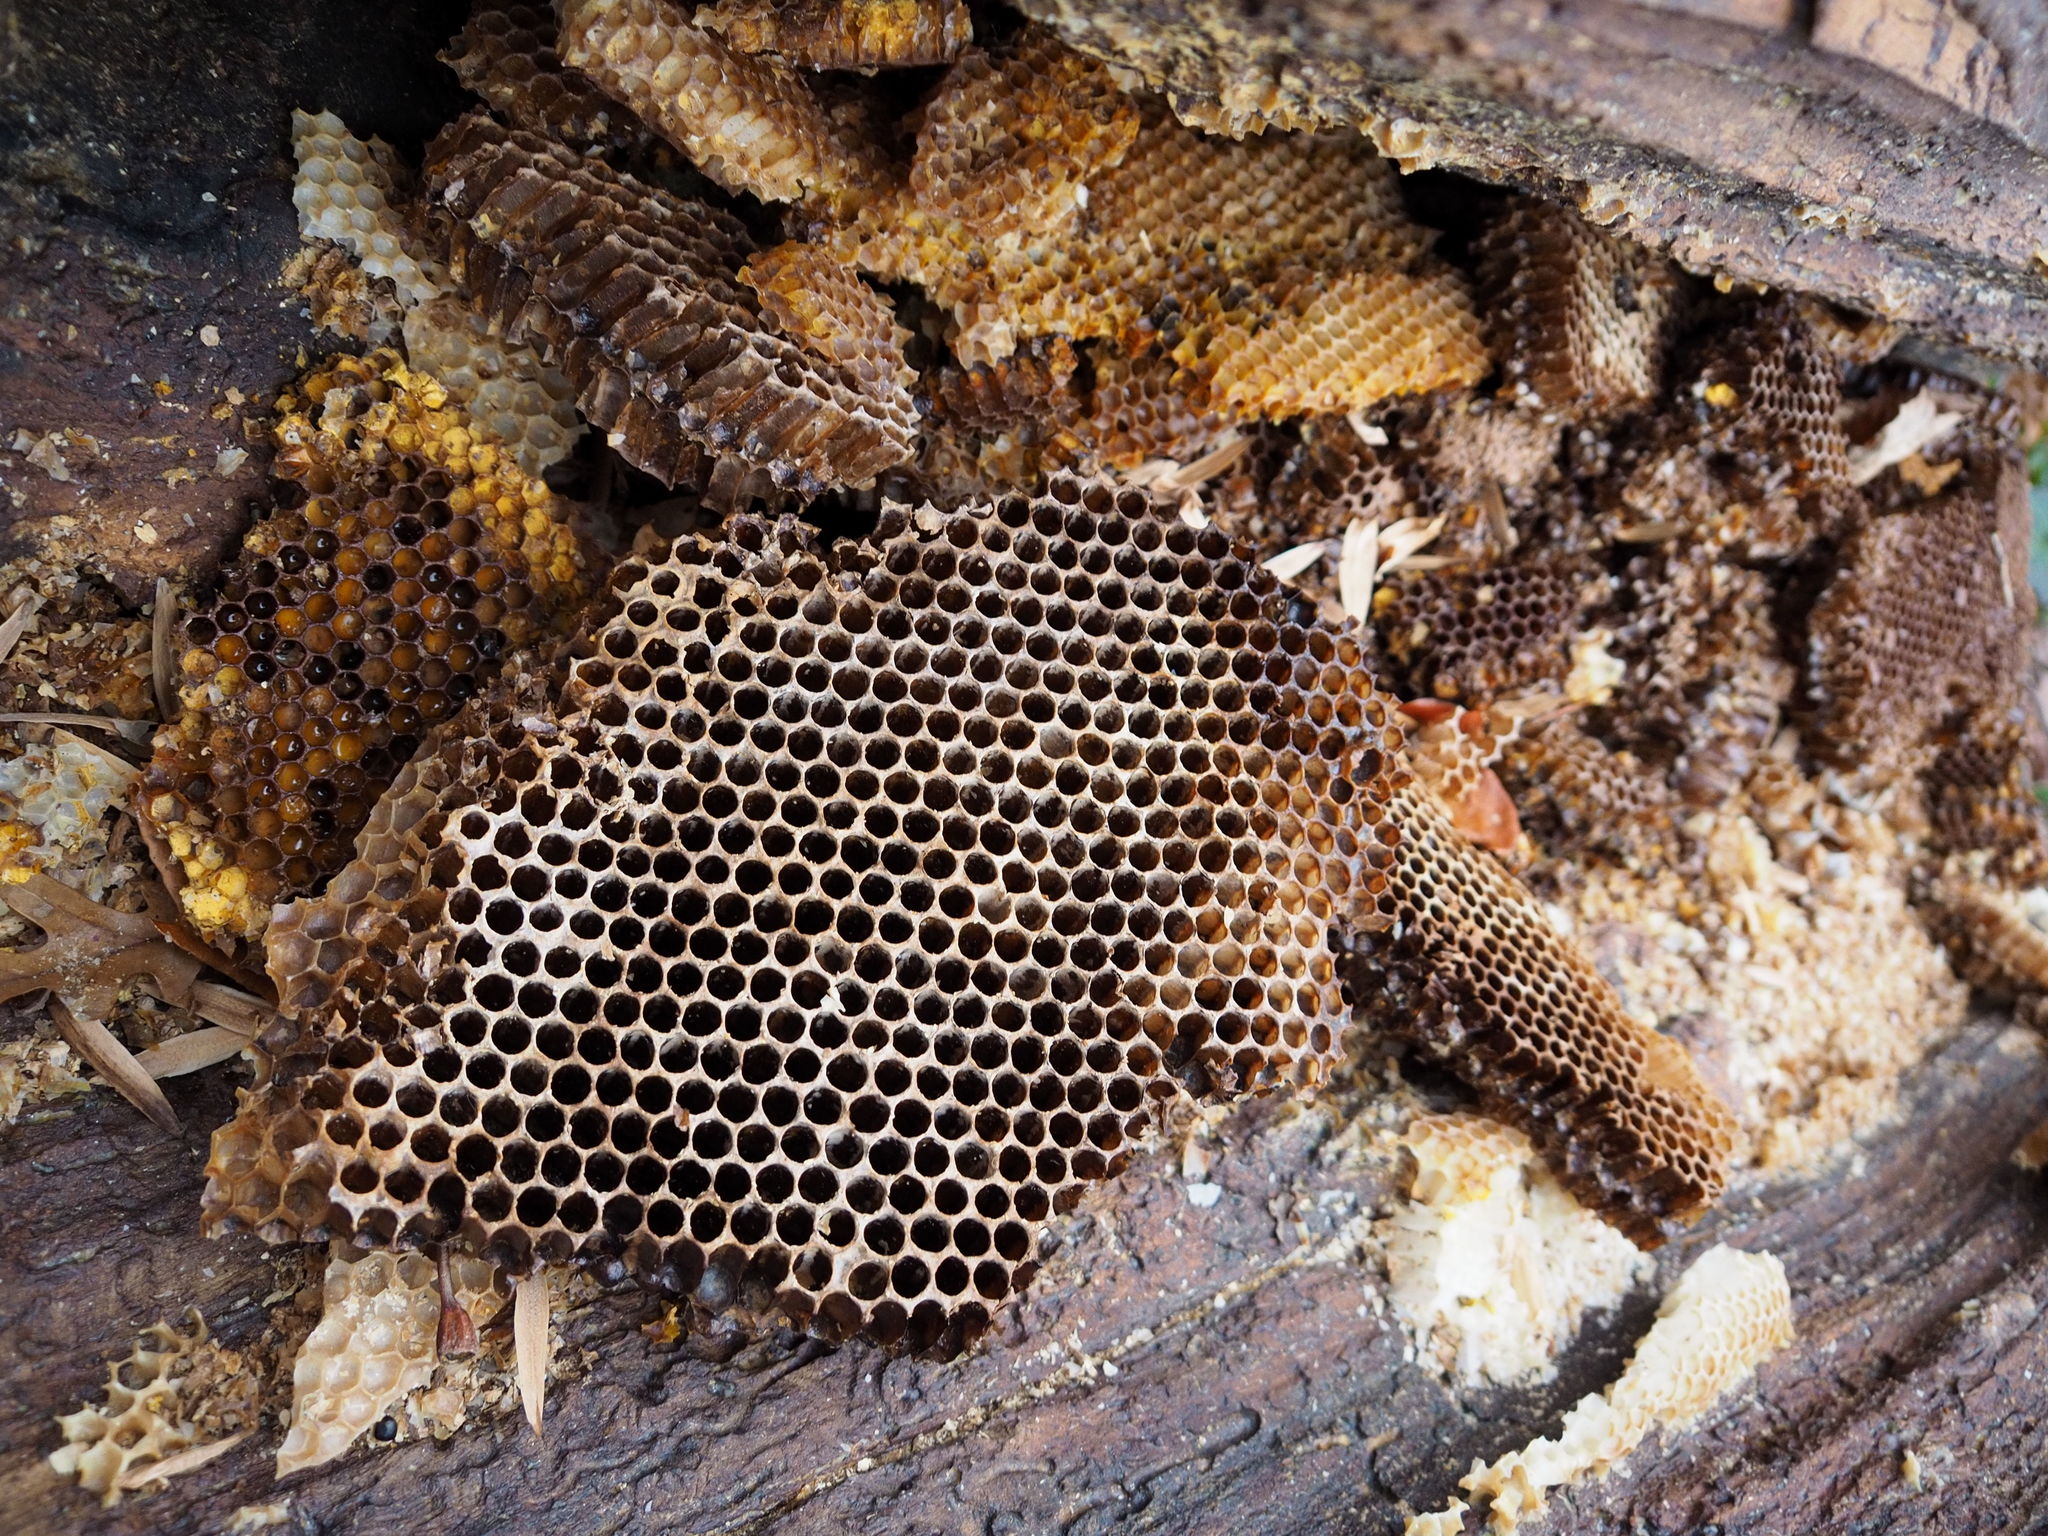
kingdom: Animalia
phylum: Arthropoda
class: Insecta
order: Hymenoptera
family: Apidae
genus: Apis
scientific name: Apis mellifera
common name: Honey bee
